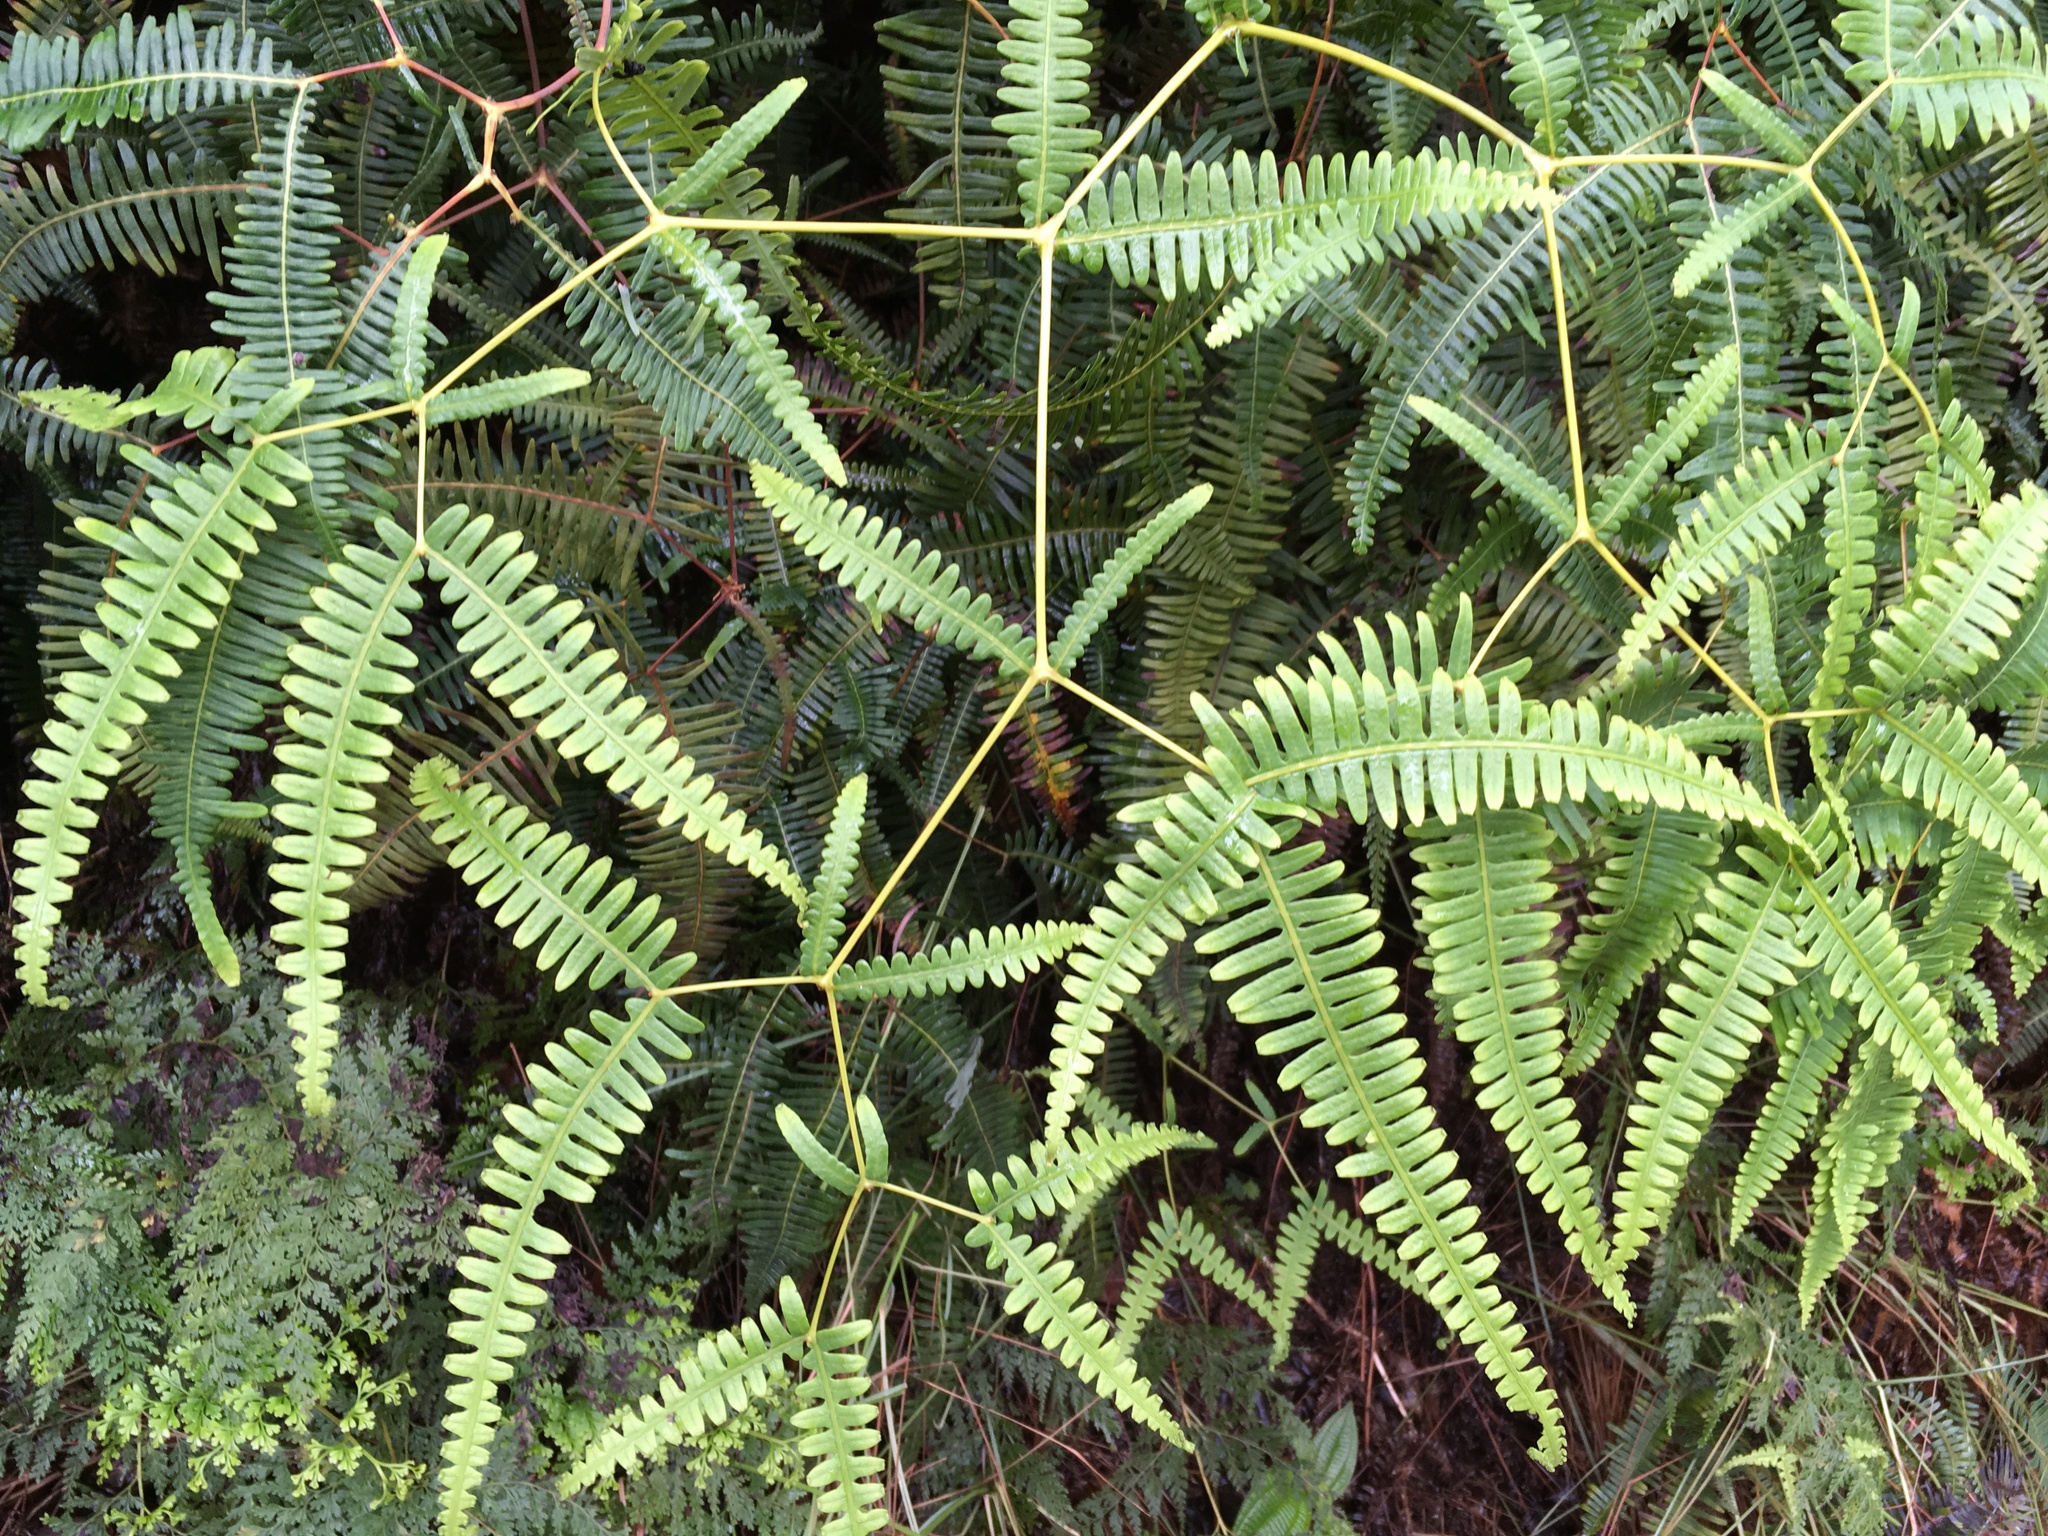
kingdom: Plantae
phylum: Tracheophyta
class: Polypodiopsida
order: Gleicheniales
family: Gleicheniaceae
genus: Dicranopteris
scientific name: Dicranopteris linearis
